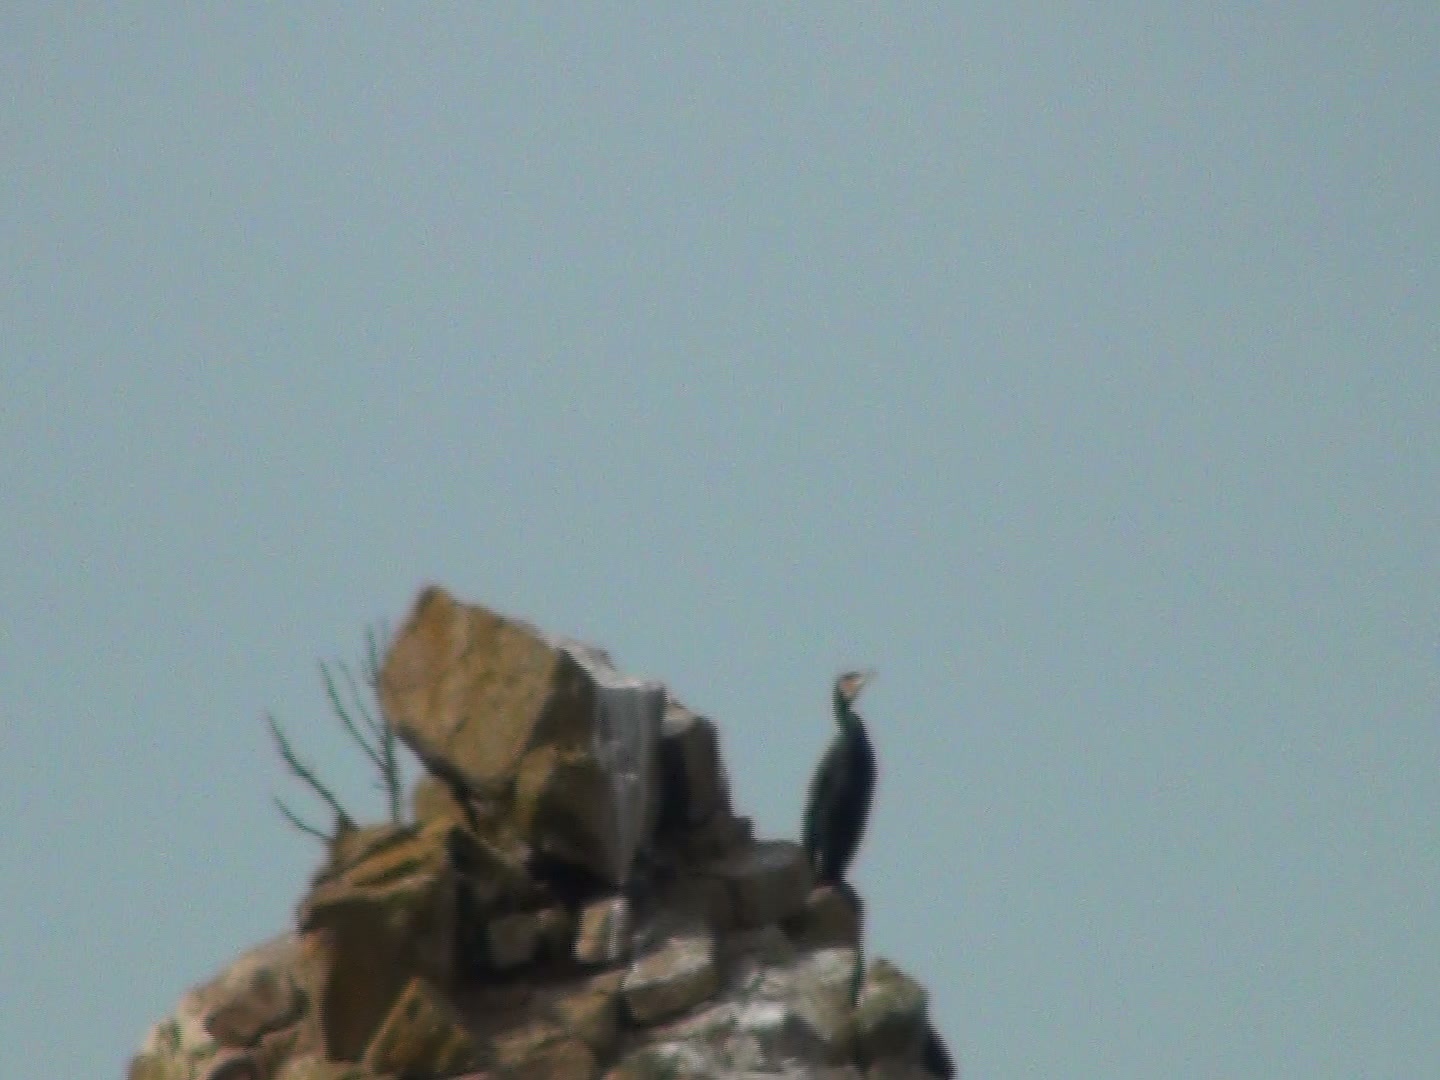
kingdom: Animalia
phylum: Chordata
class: Aves
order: Suliformes
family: Phalacrocoracidae
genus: Phalacrocorax
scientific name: Phalacrocorax carbo
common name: Great cormorant
